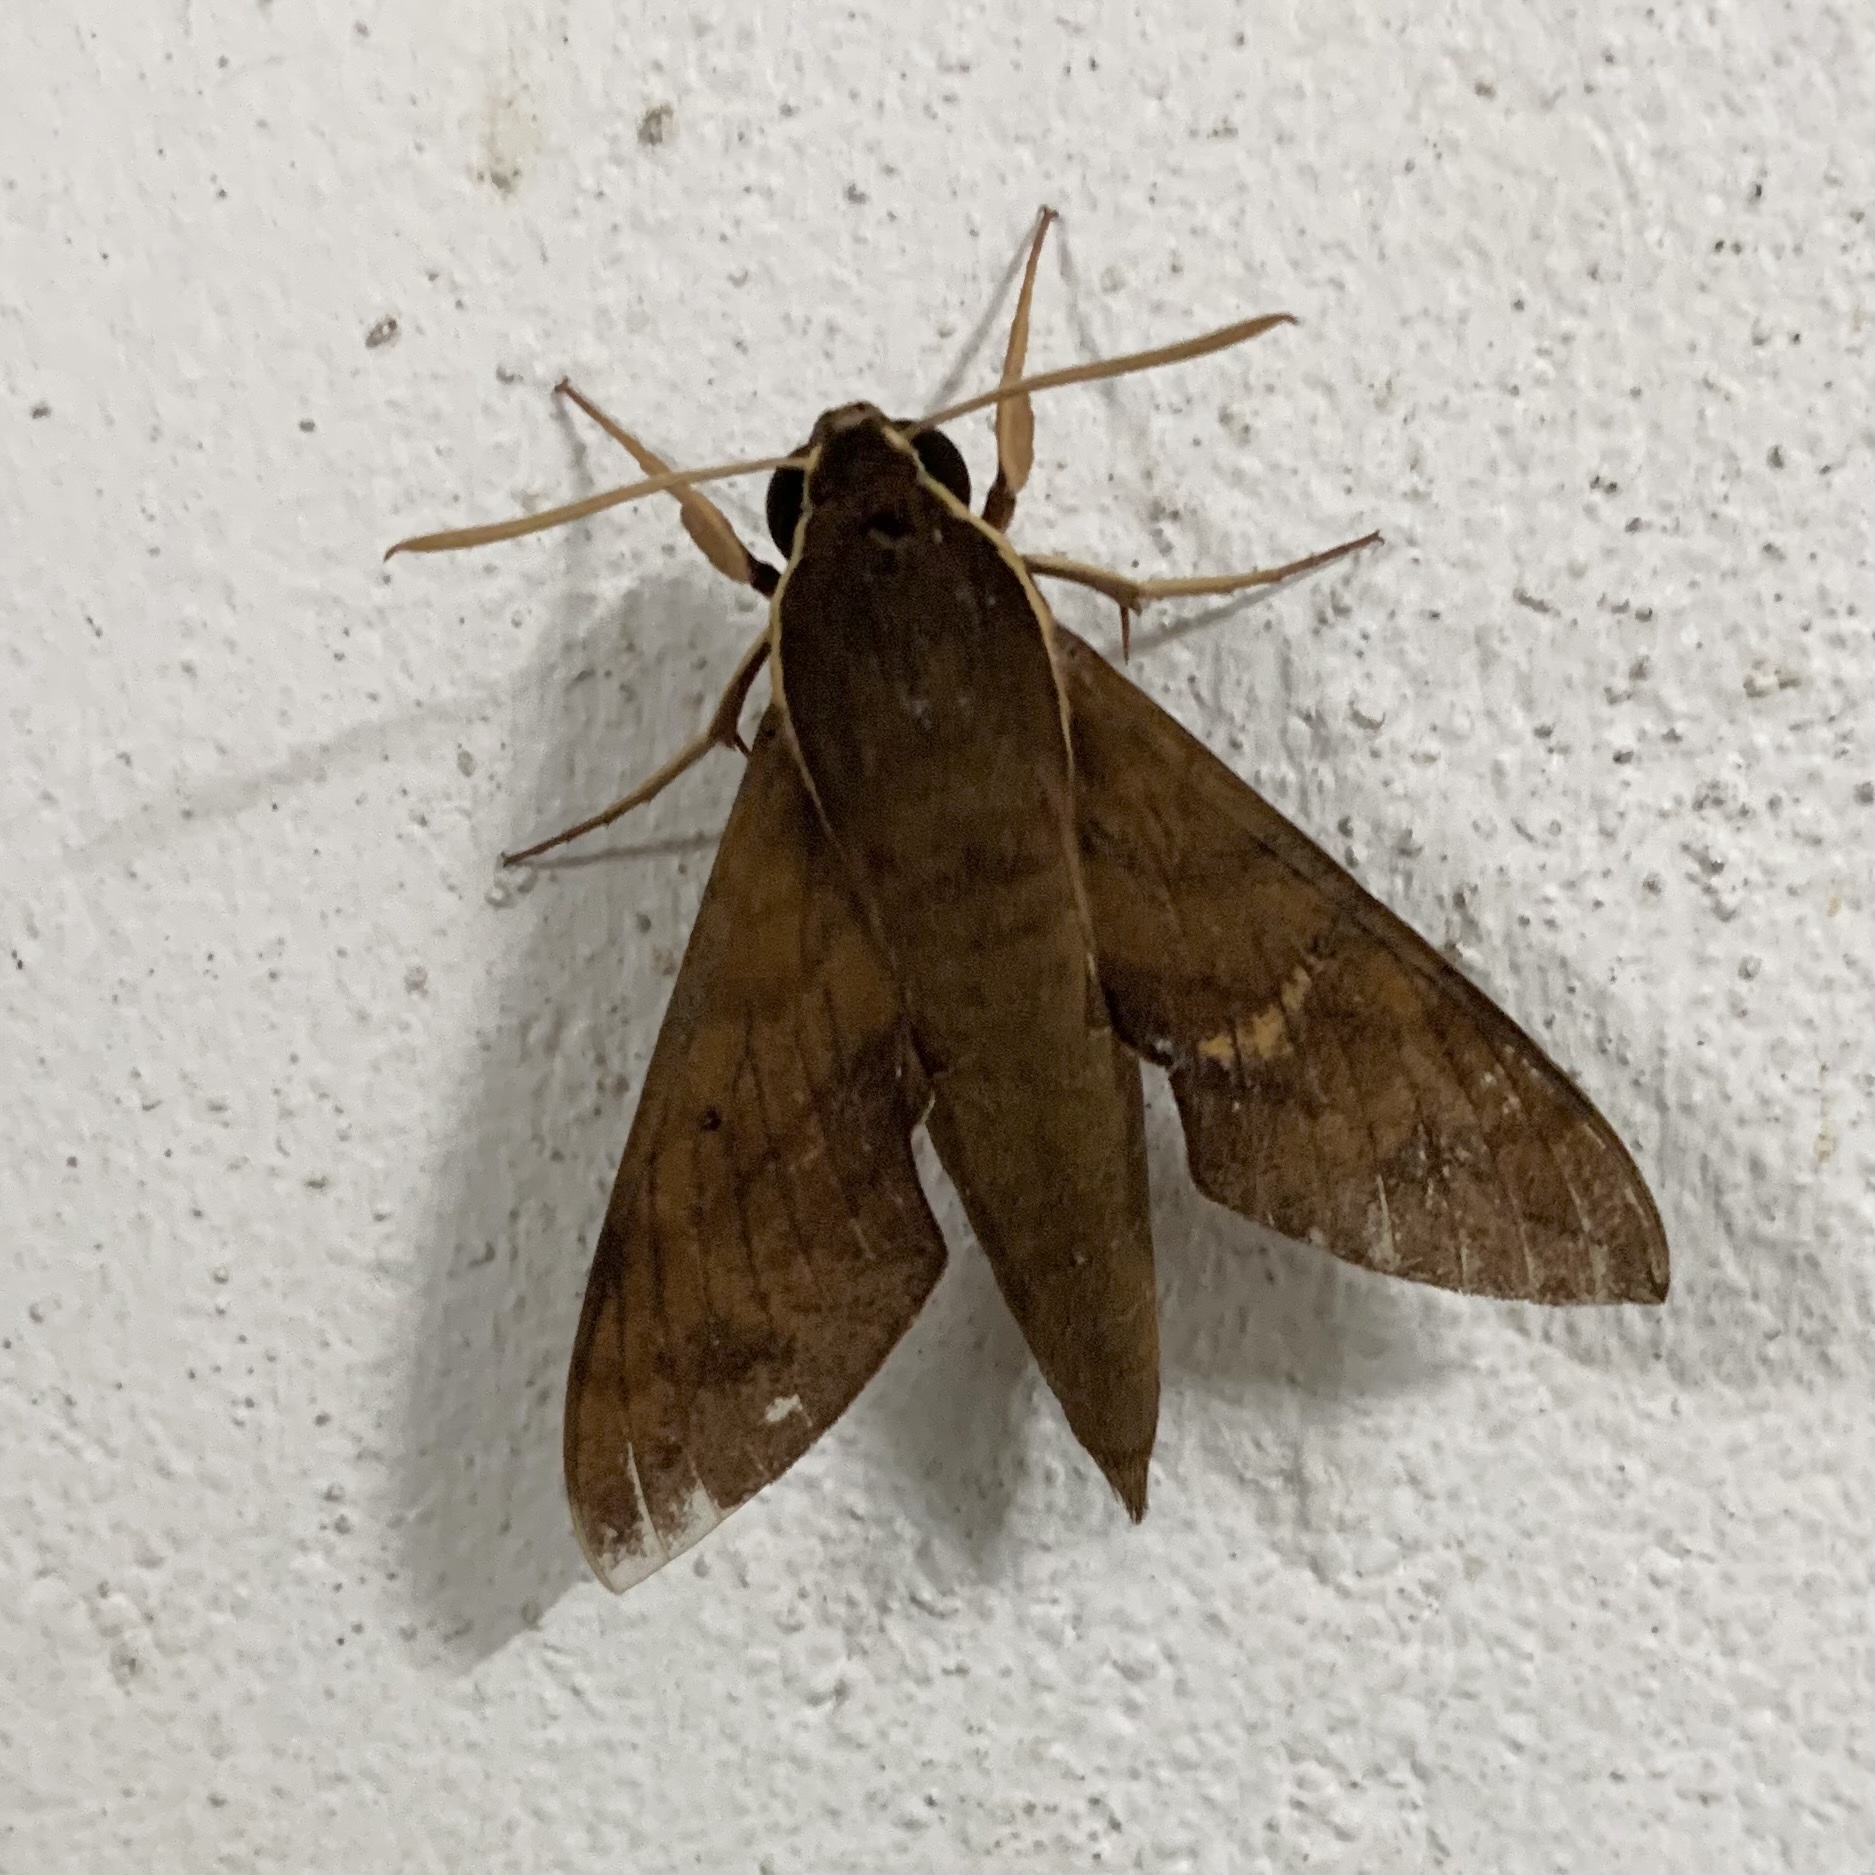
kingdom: Animalia
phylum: Arthropoda
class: Insecta
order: Lepidoptera
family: Sphingidae
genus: Gnathothlibus
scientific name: Gnathothlibus vanuatuensis
